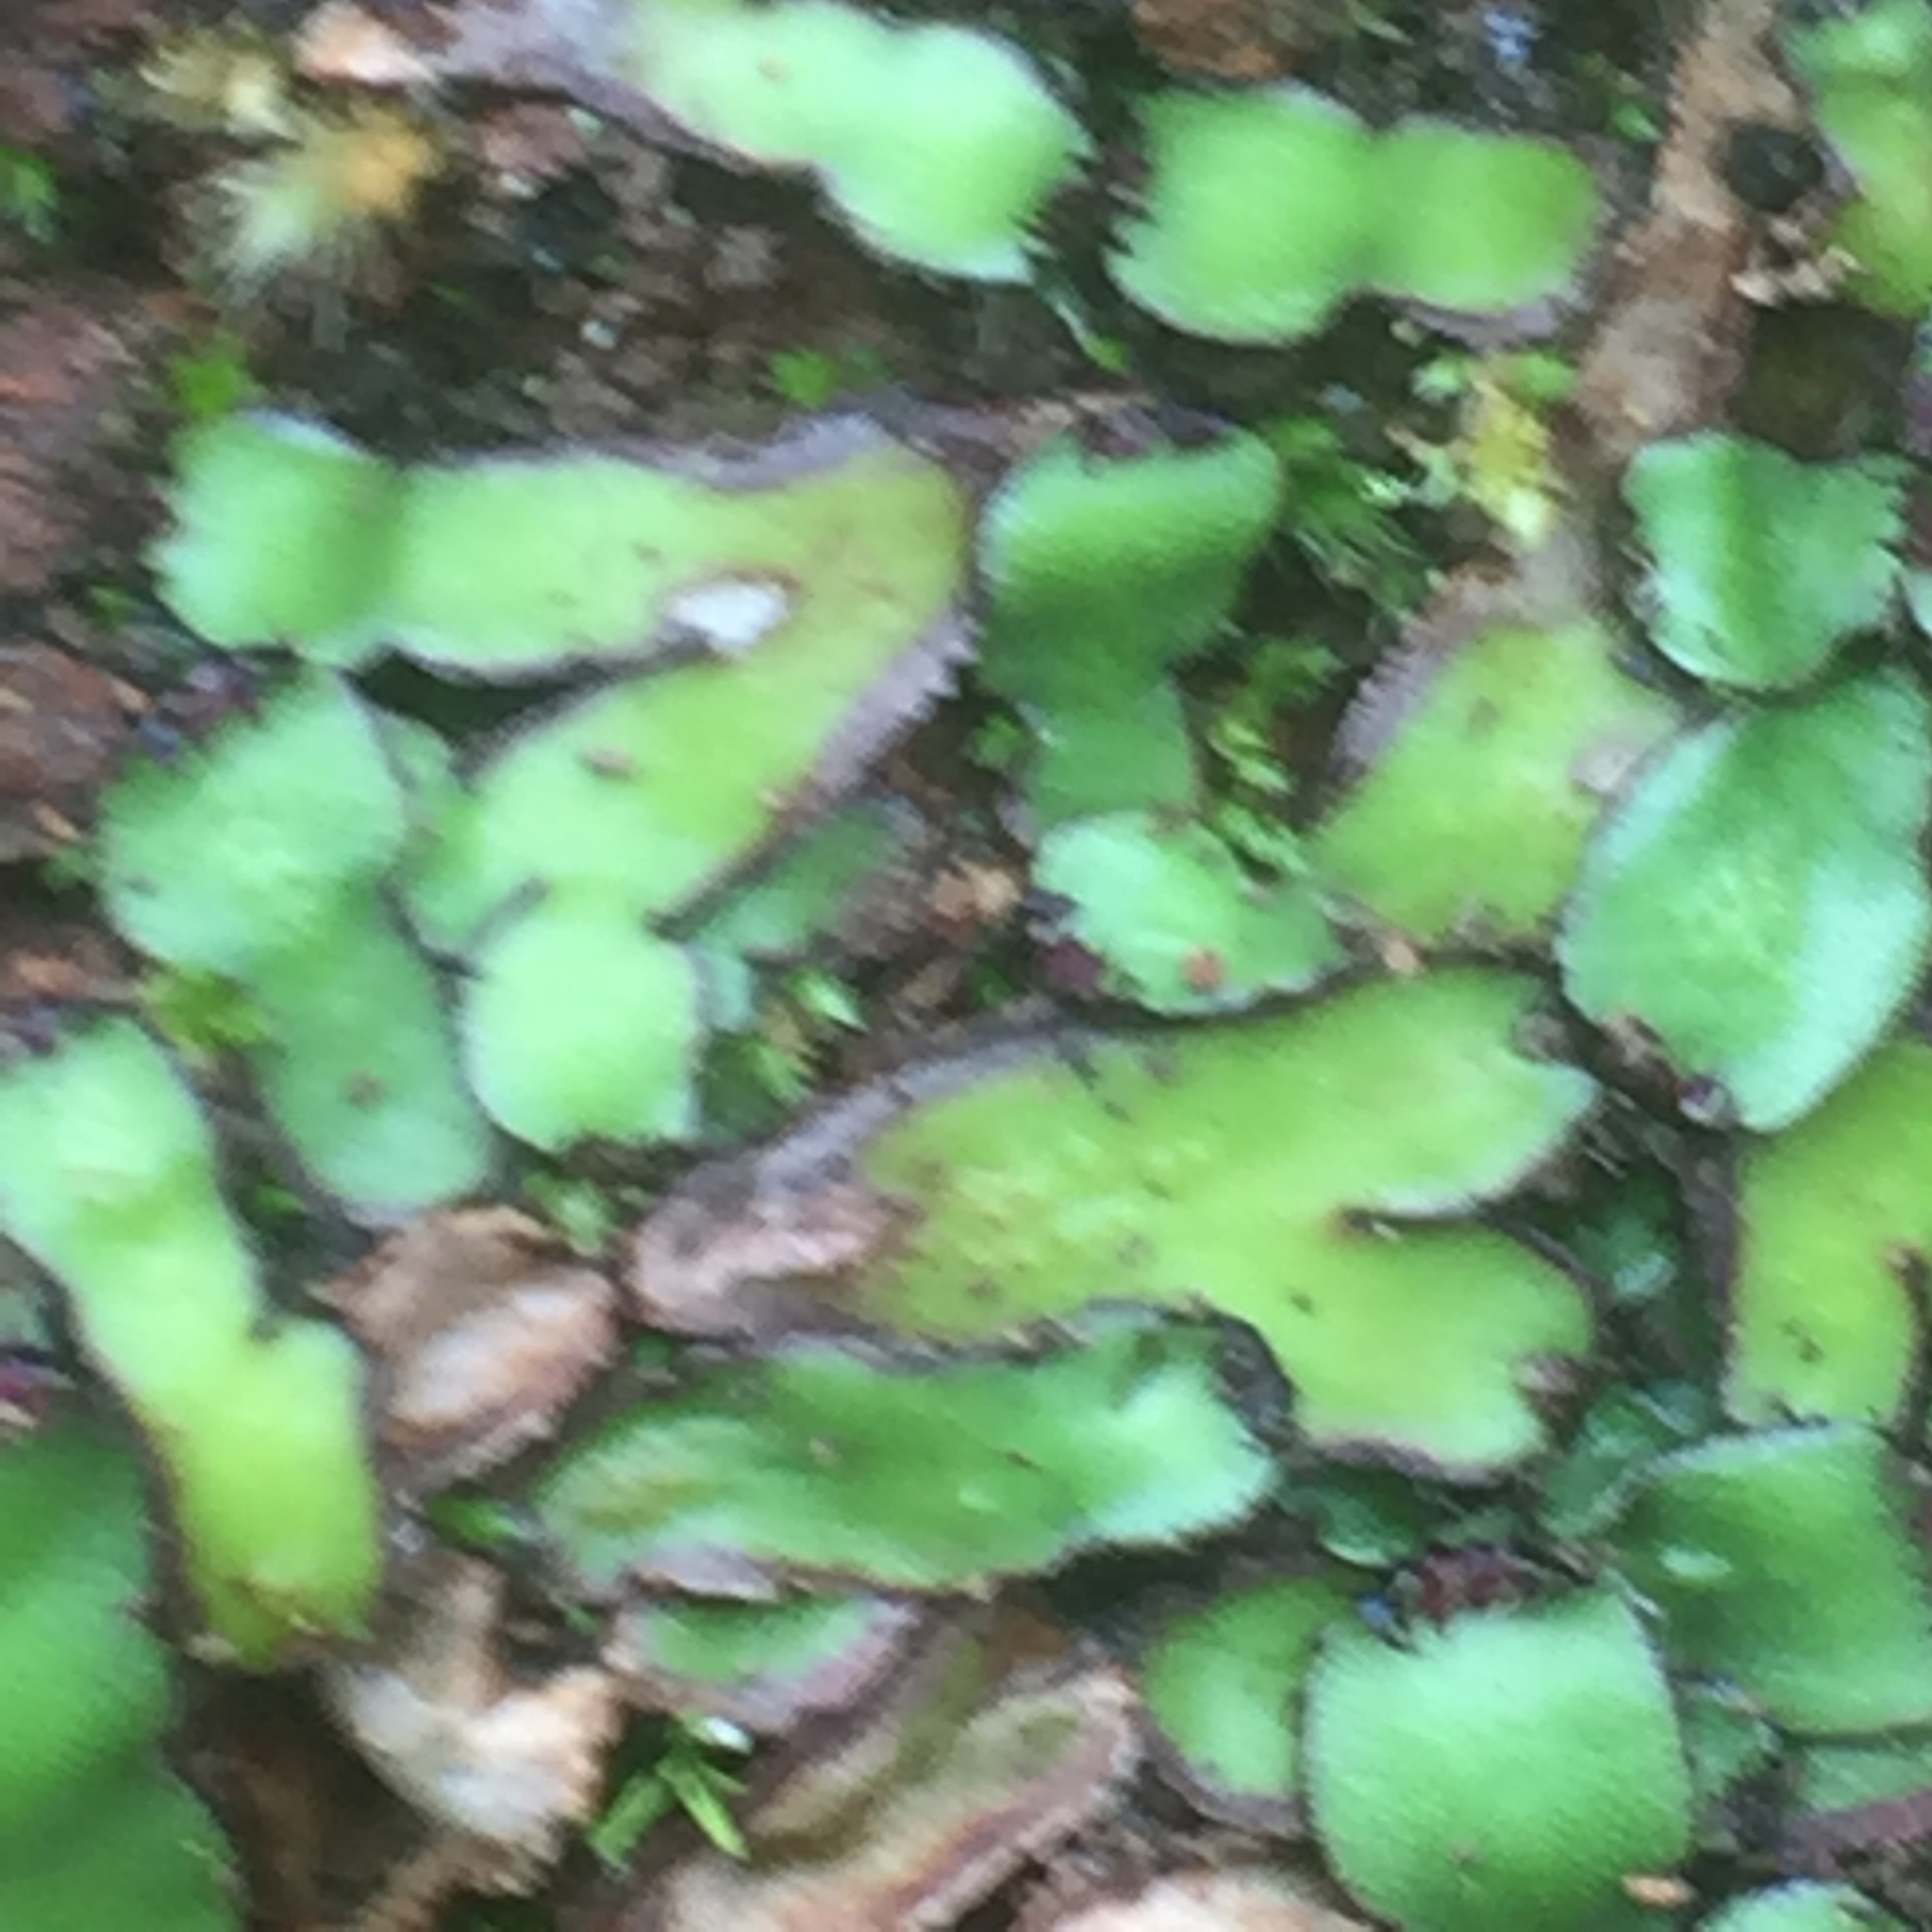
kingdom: Plantae
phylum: Marchantiophyta
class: Marchantiopsida
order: Marchantiales
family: Aytoniaceae
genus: Plagiochasma
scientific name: Plagiochasma rupestre
